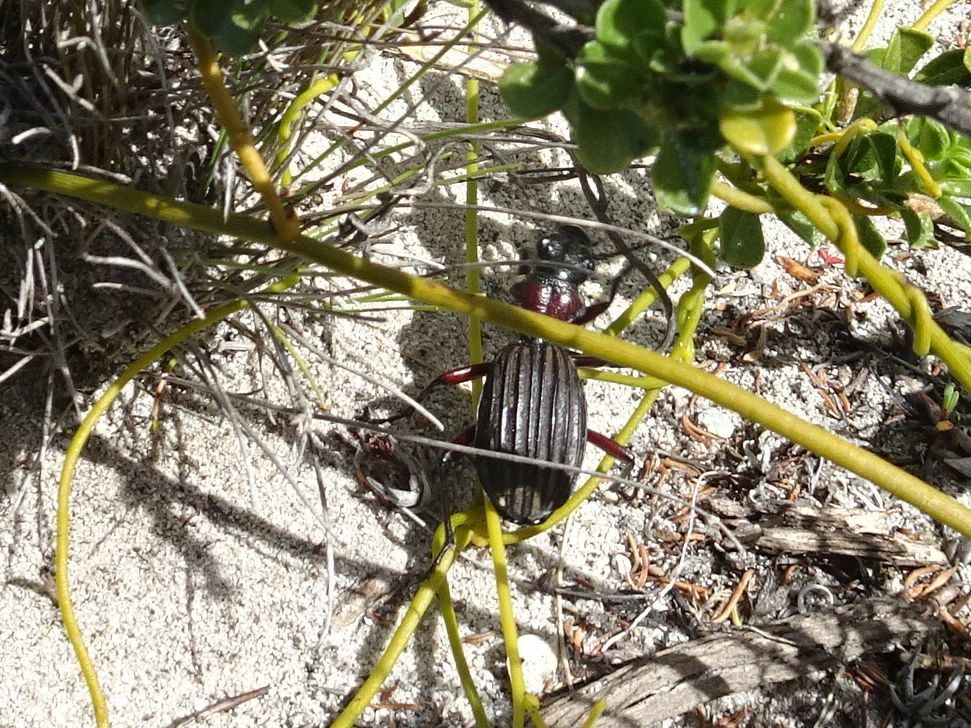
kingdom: Animalia
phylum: Arthropoda
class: Insecta
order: Coleoptera
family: Carabidae
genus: Anthia
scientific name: Anthia decemguttata
